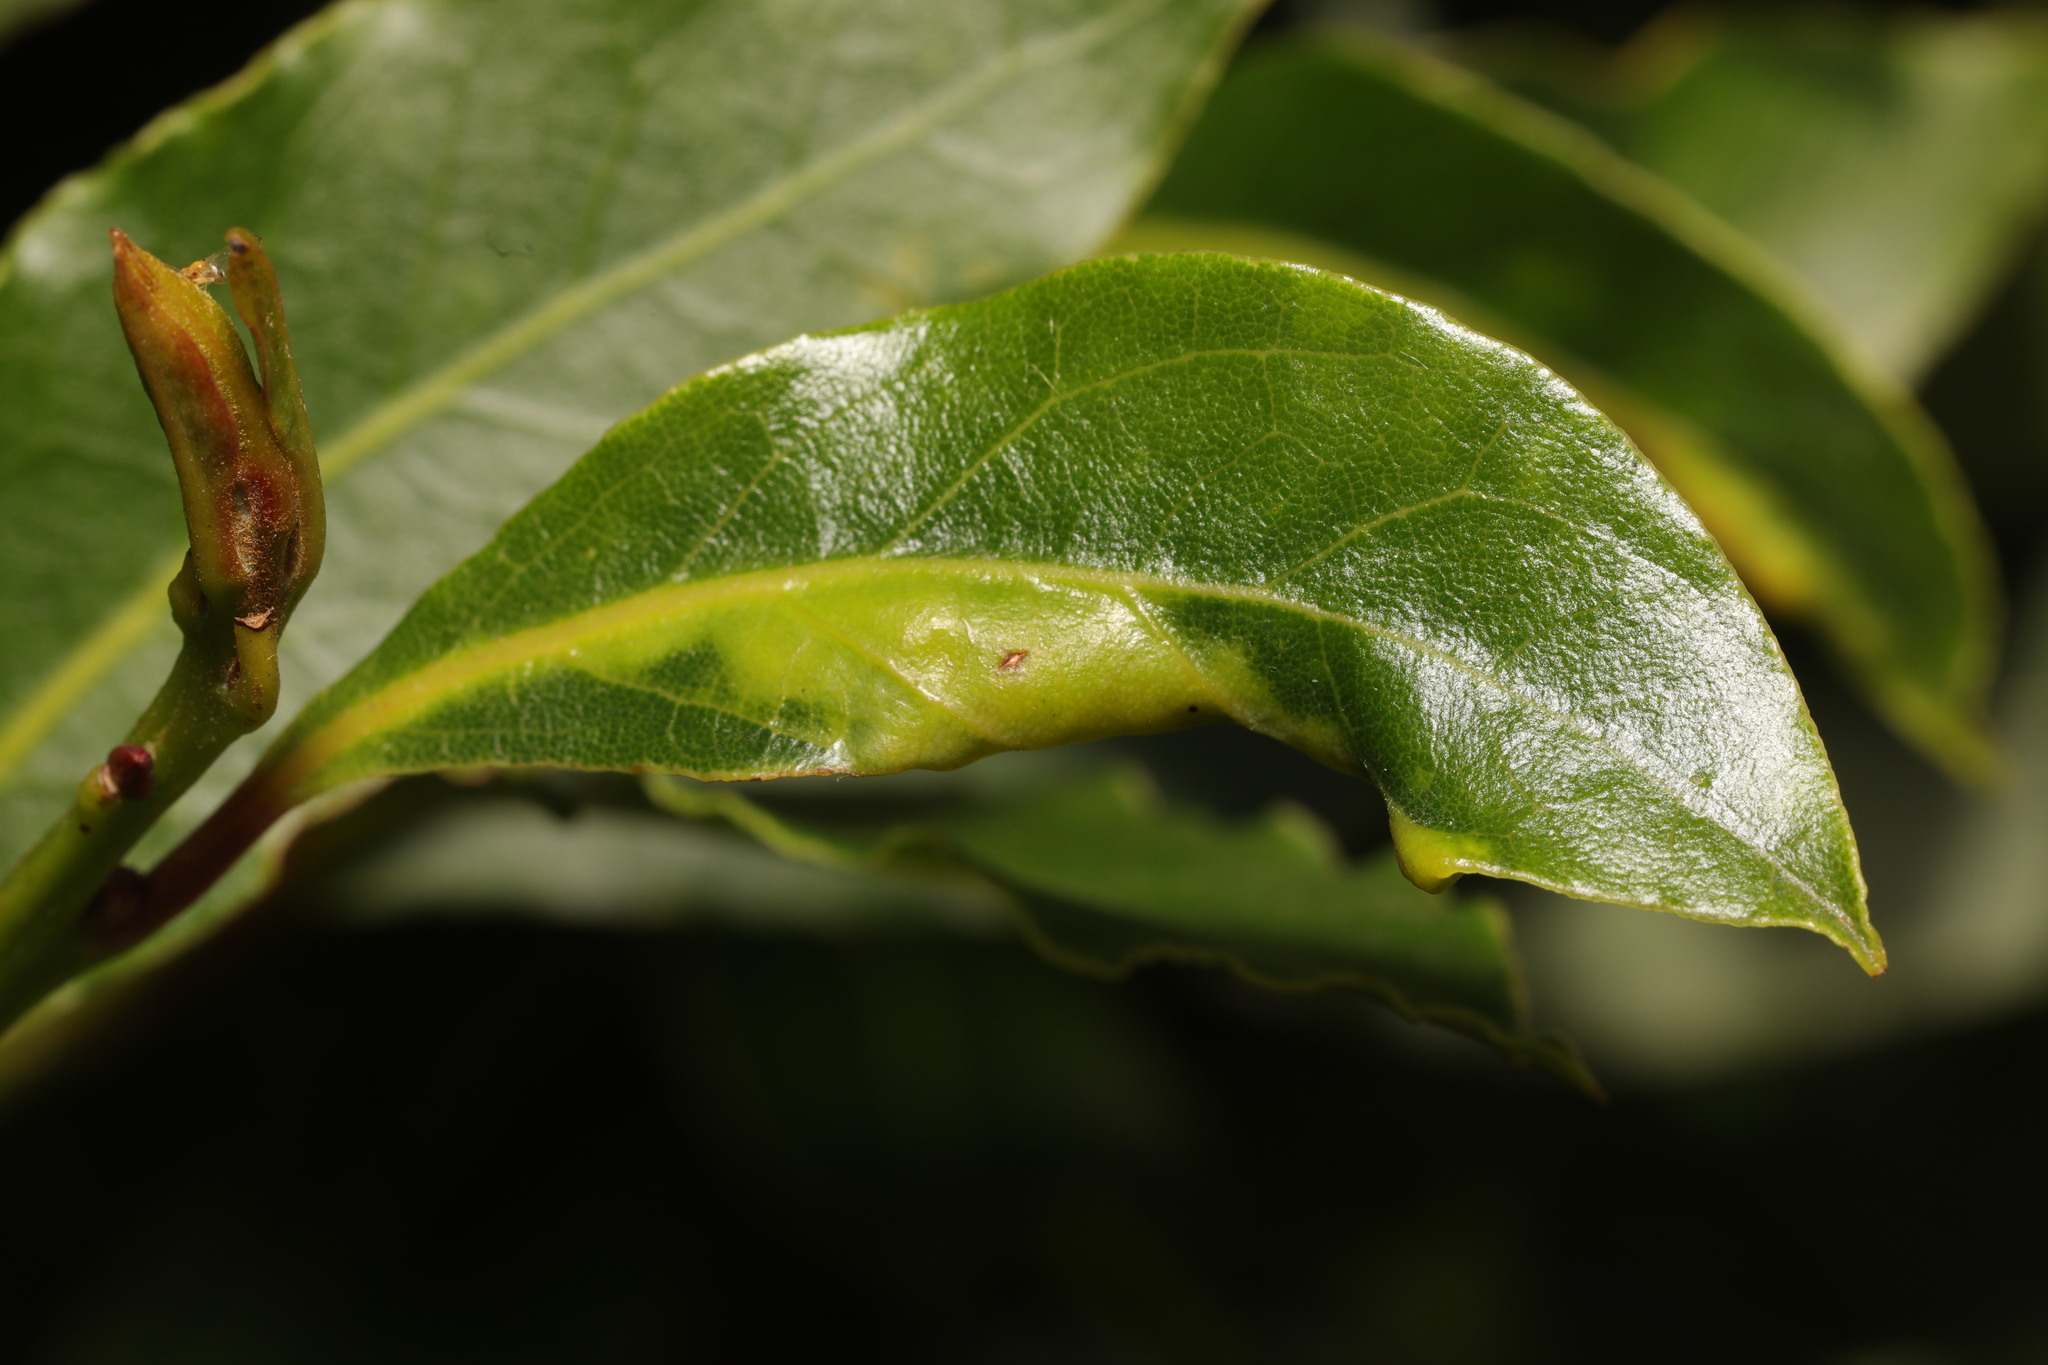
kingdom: Animalia
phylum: Arthropoda
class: Insecta
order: Hemiptera
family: Triozidae
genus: Lauritrioza
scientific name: Lauritrioza alacris
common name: Laurel psyllid
